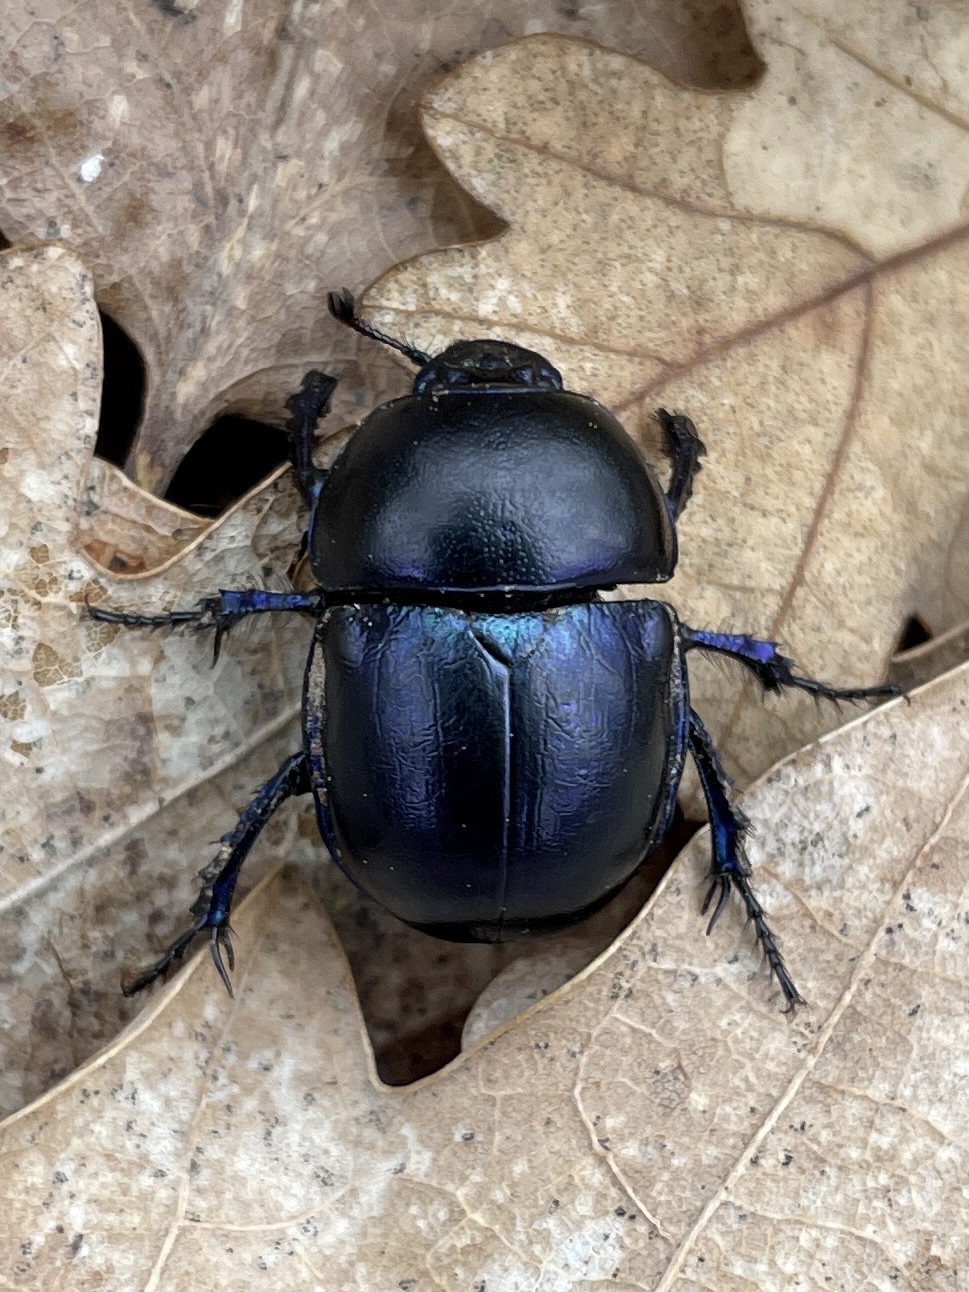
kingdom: Animalia
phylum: Arthropoda
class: Insecta
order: Coleoptera
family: Geotrupidae
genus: Trypocopris
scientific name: Trypocopris vernalis
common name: Spring dumbledor
